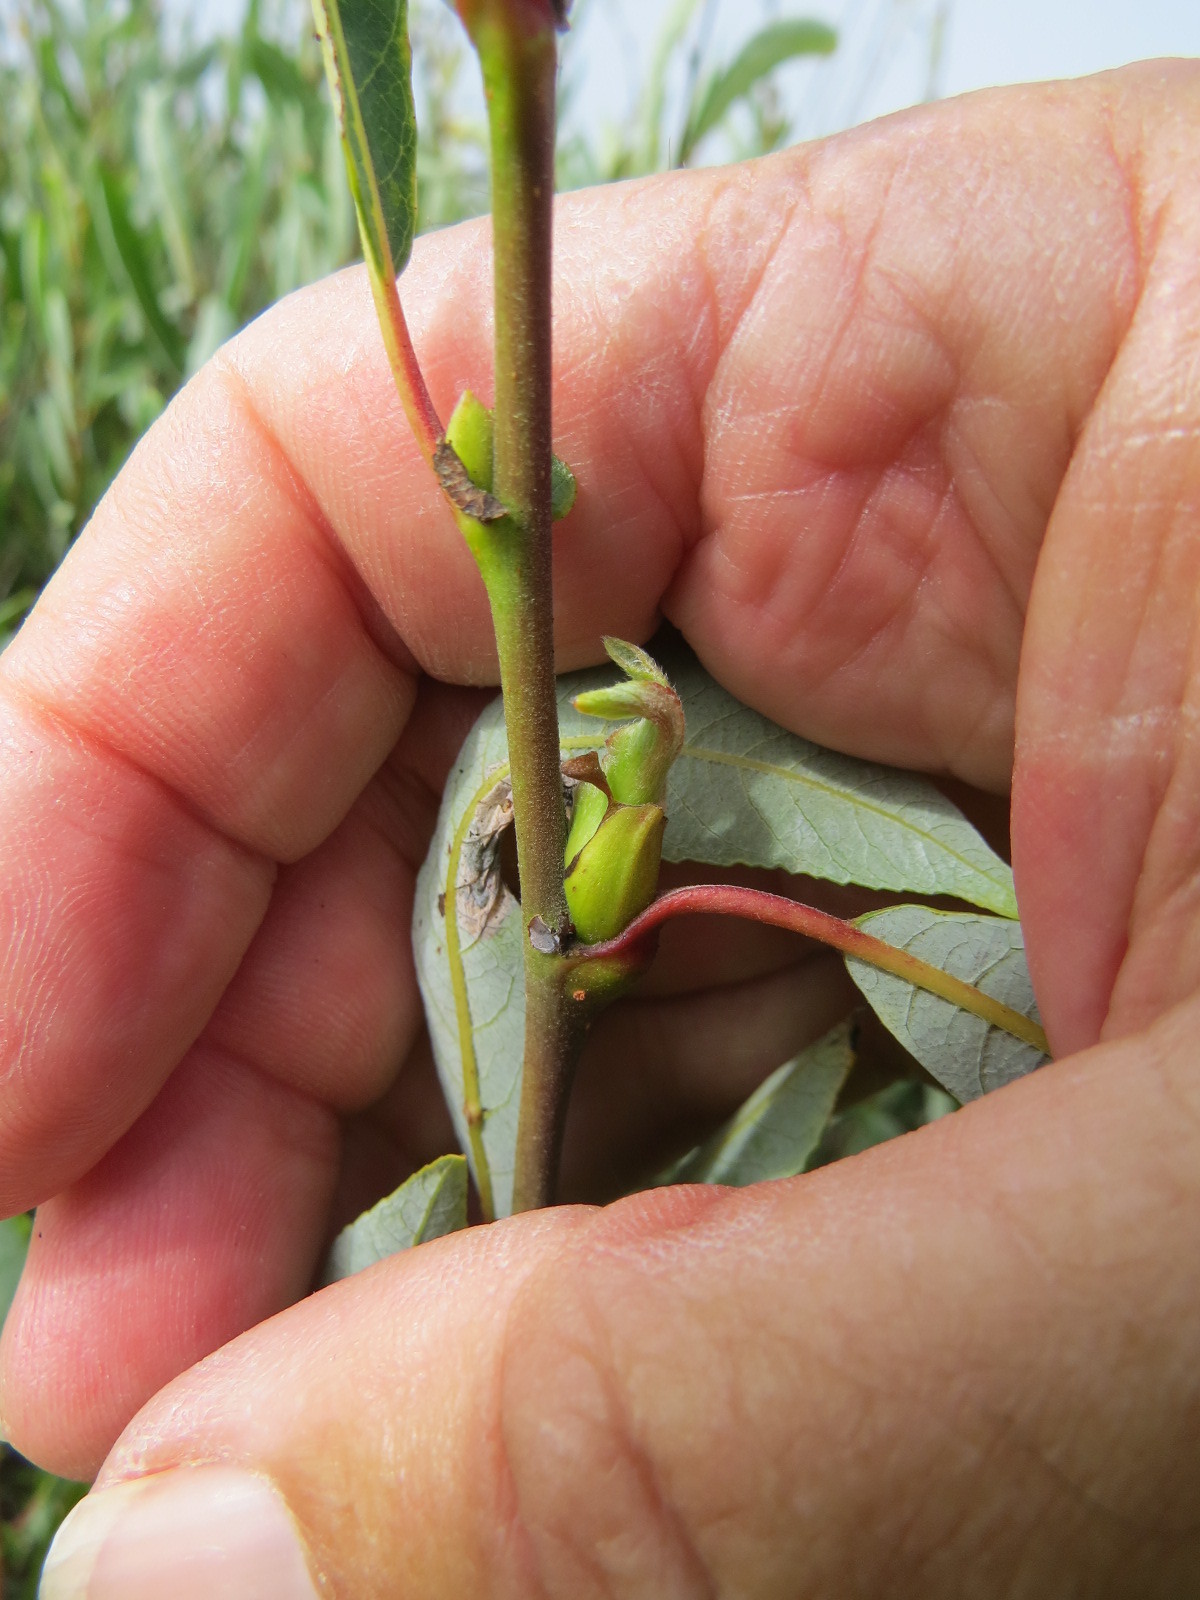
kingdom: Animalia
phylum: Arthropoda
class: Insecta
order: Diptera
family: Cecidomyiidae
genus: Rabdophaga
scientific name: Rabdophaga salicisbrassicoides
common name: Willow cabbagegall midge
